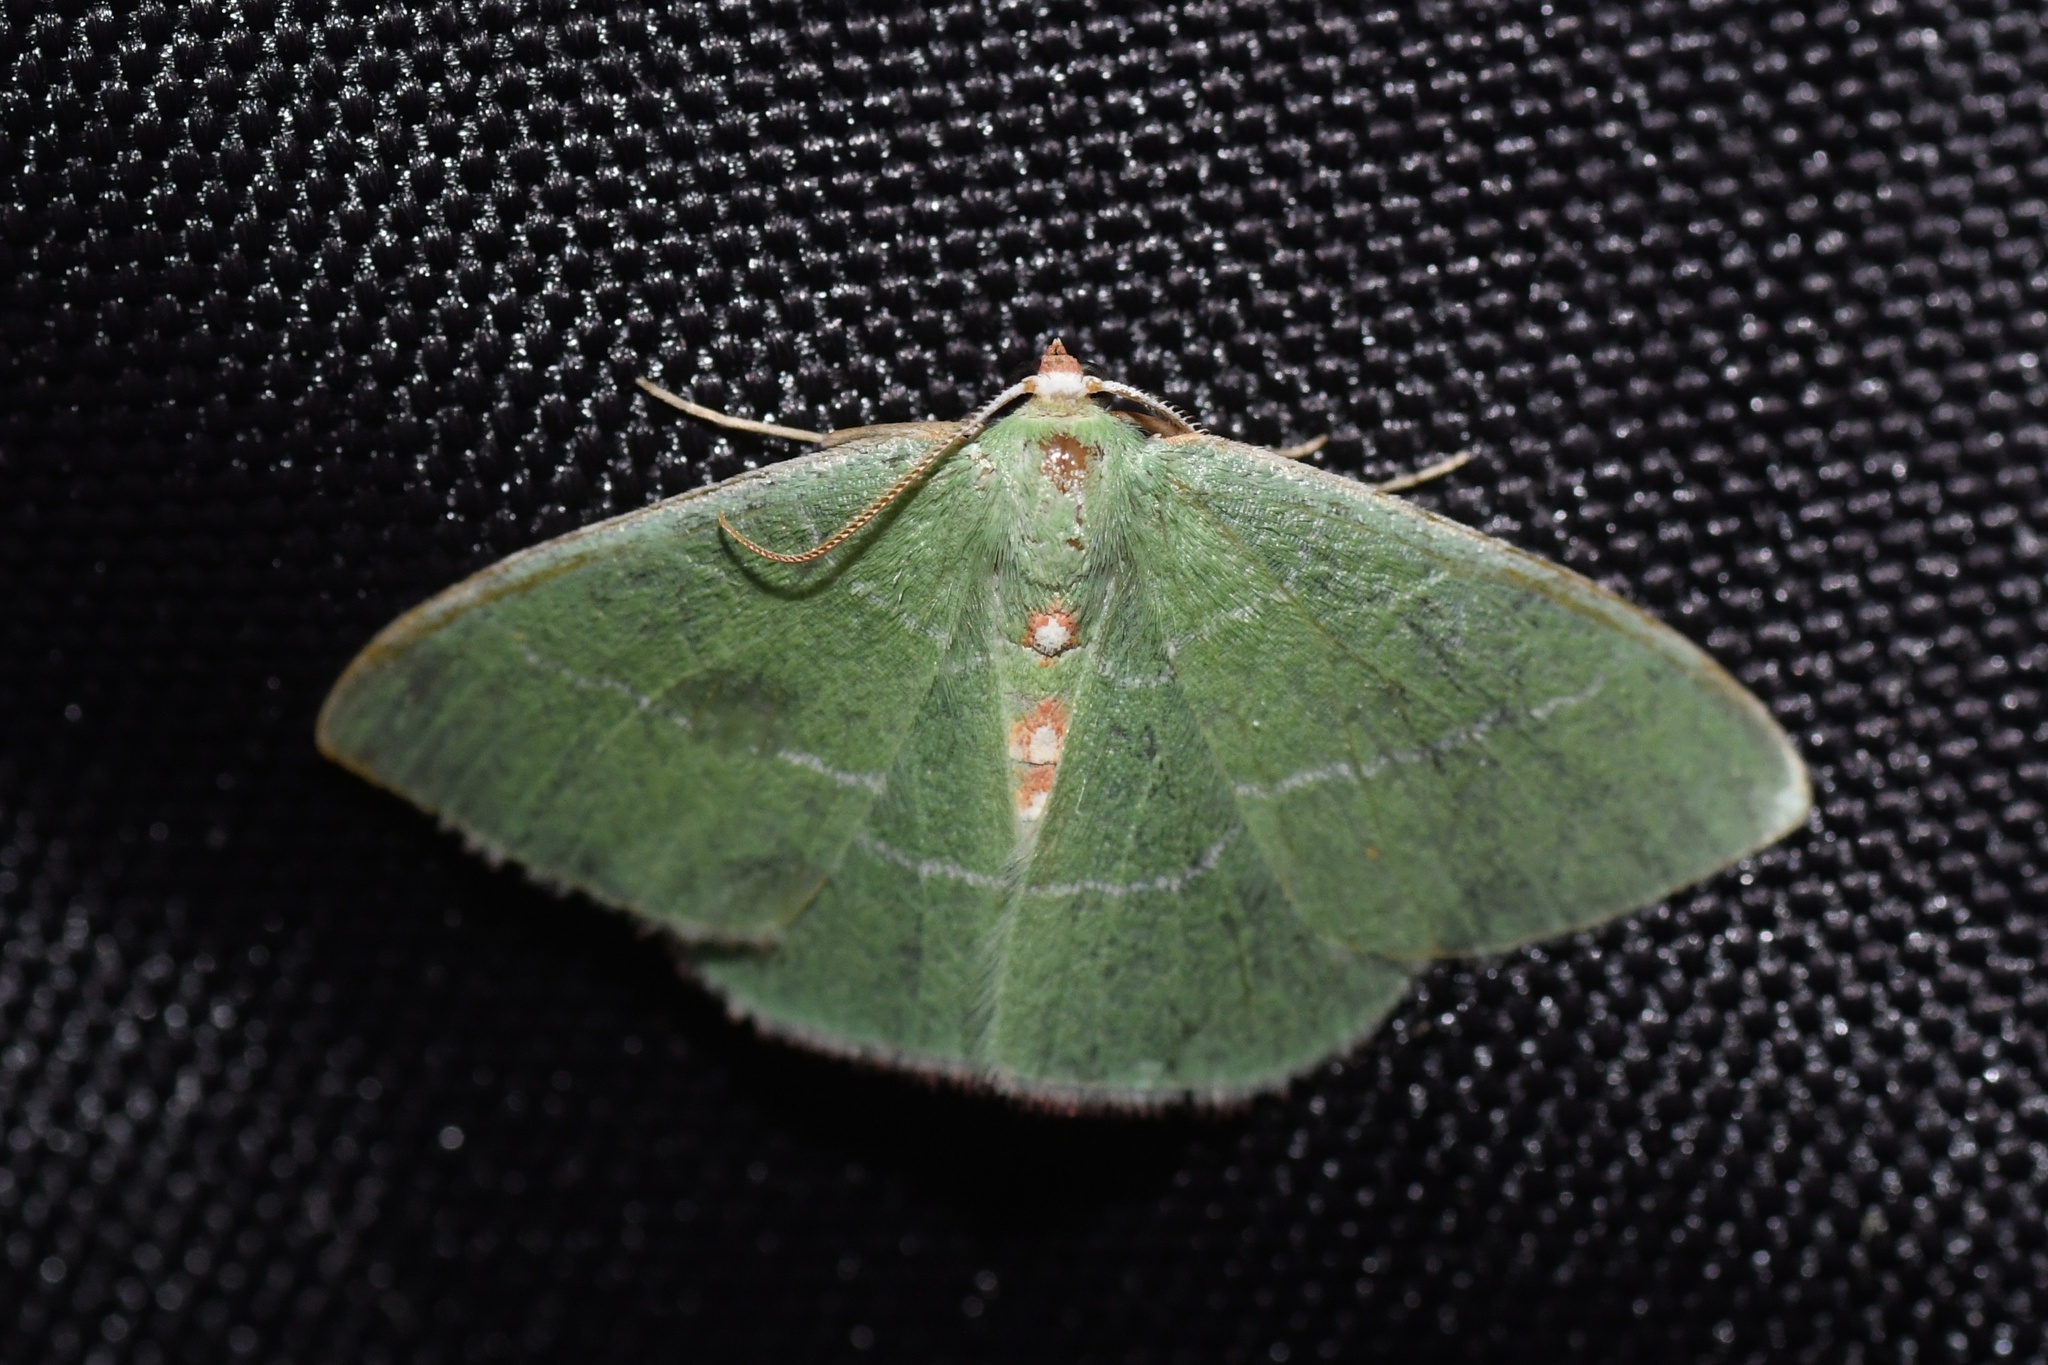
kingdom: Animalia
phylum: Arthropoda
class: Insecta
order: Lepidoptera
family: Geometridae
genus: Nemoria
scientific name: Nemoria bistriaria
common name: Red-fringed emerald
